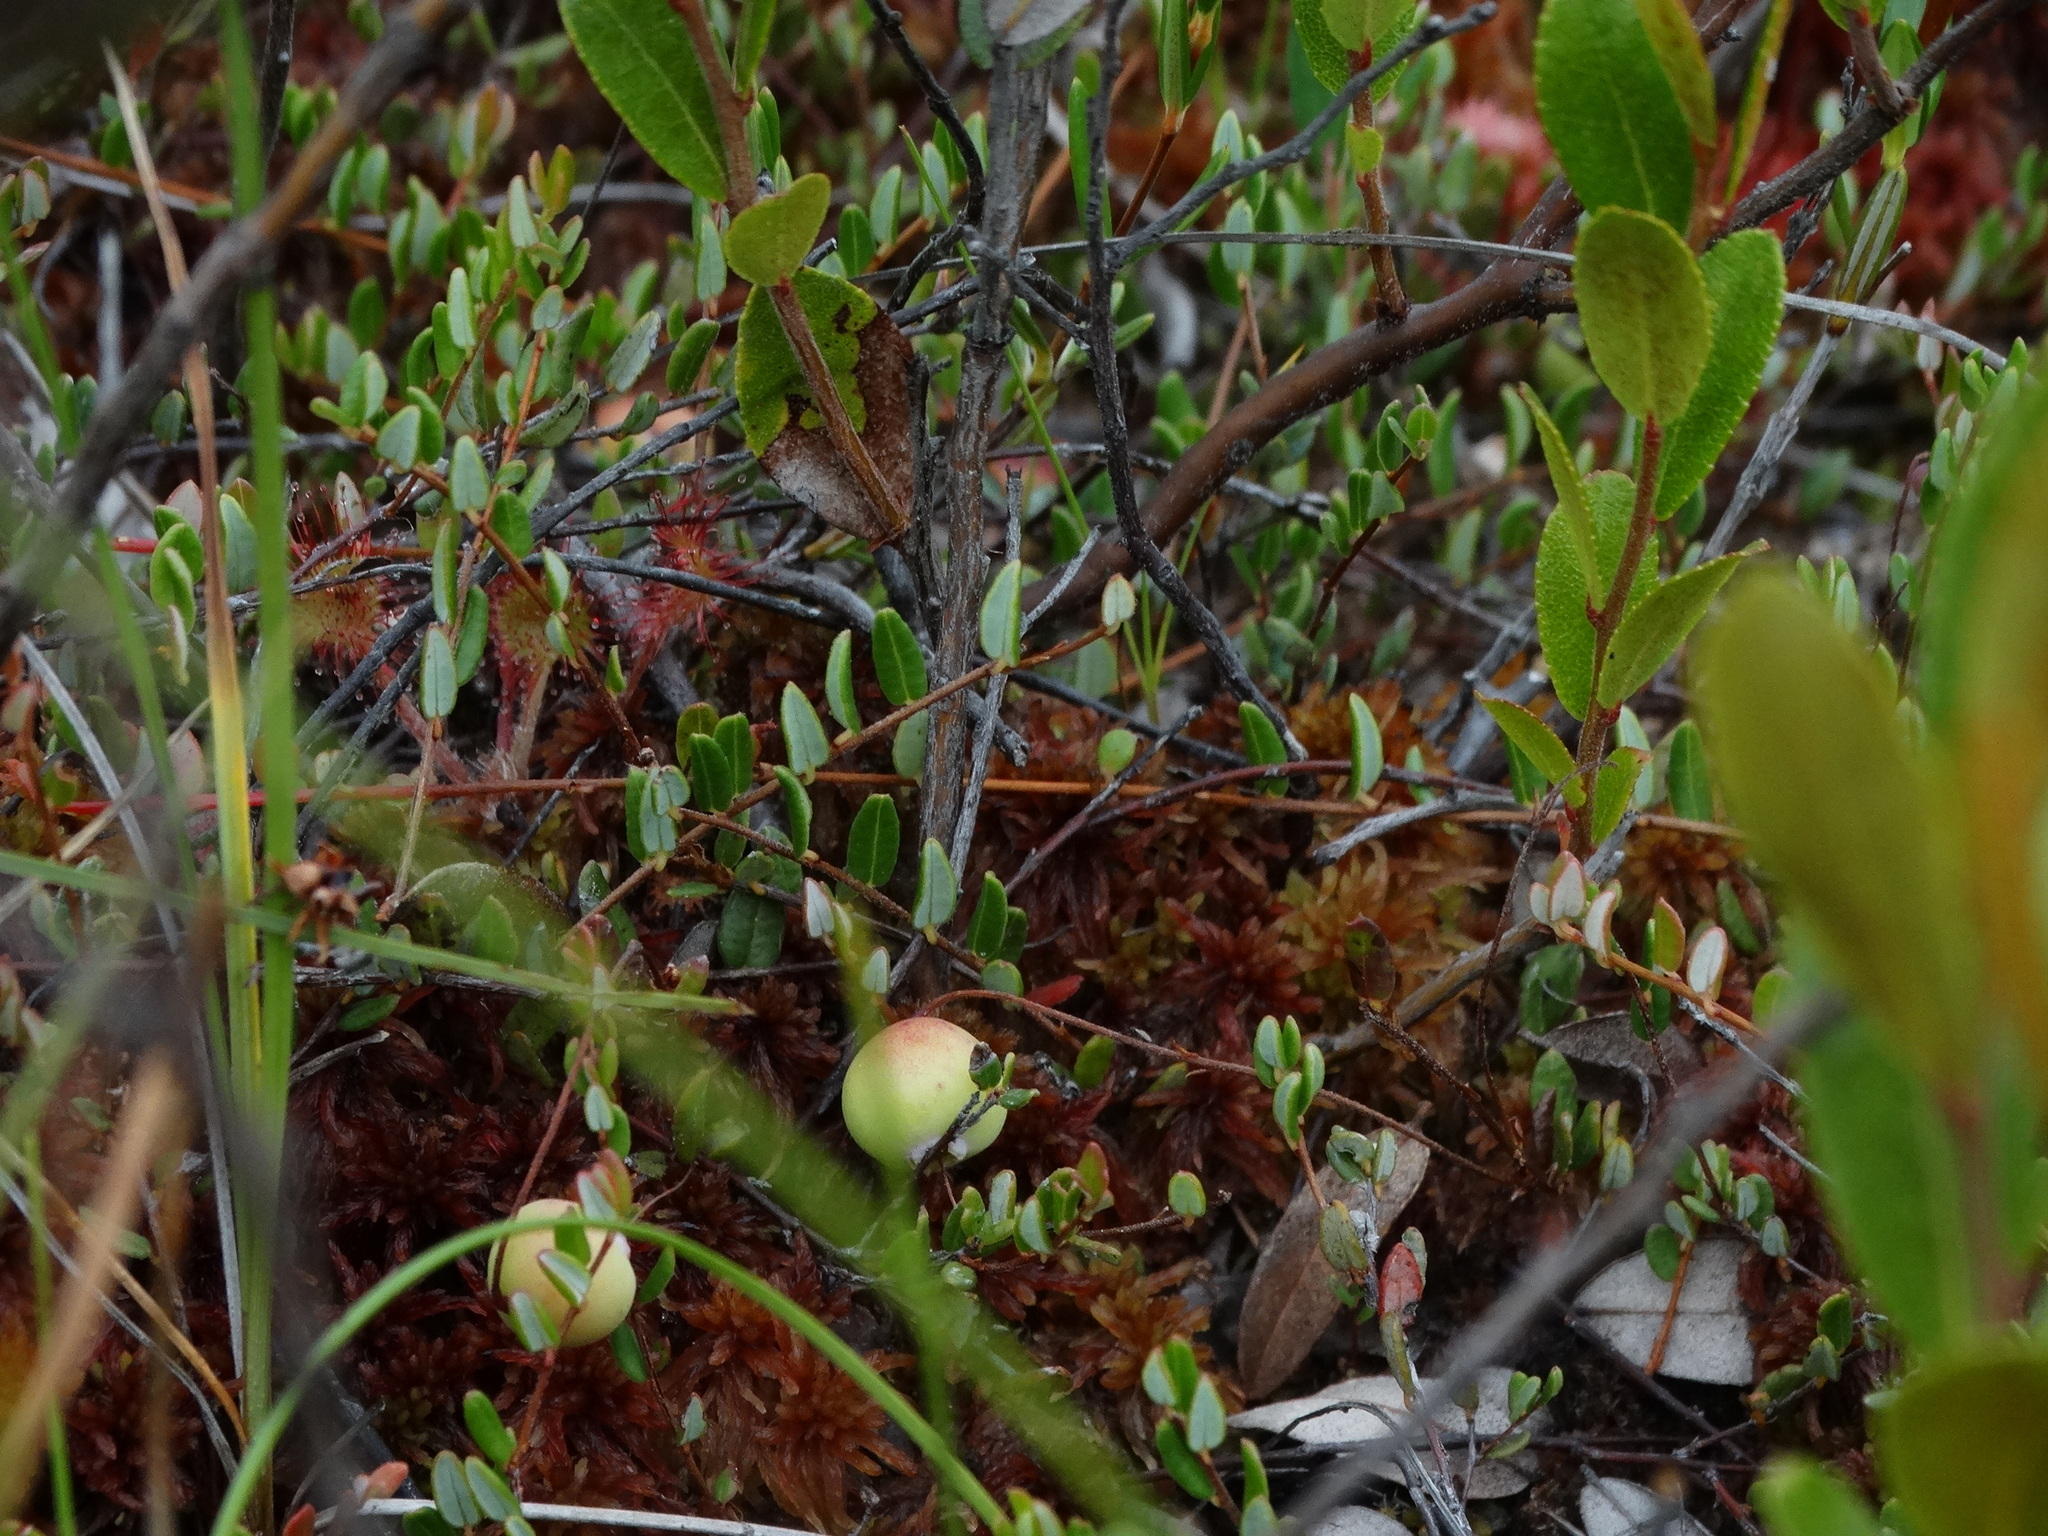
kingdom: Plantae
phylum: Tracheophyta
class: Magnoliopsida
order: Ericales
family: Ericaceae
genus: Vaccinium
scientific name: Vaccinium oxycoccos
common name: Cranberry
